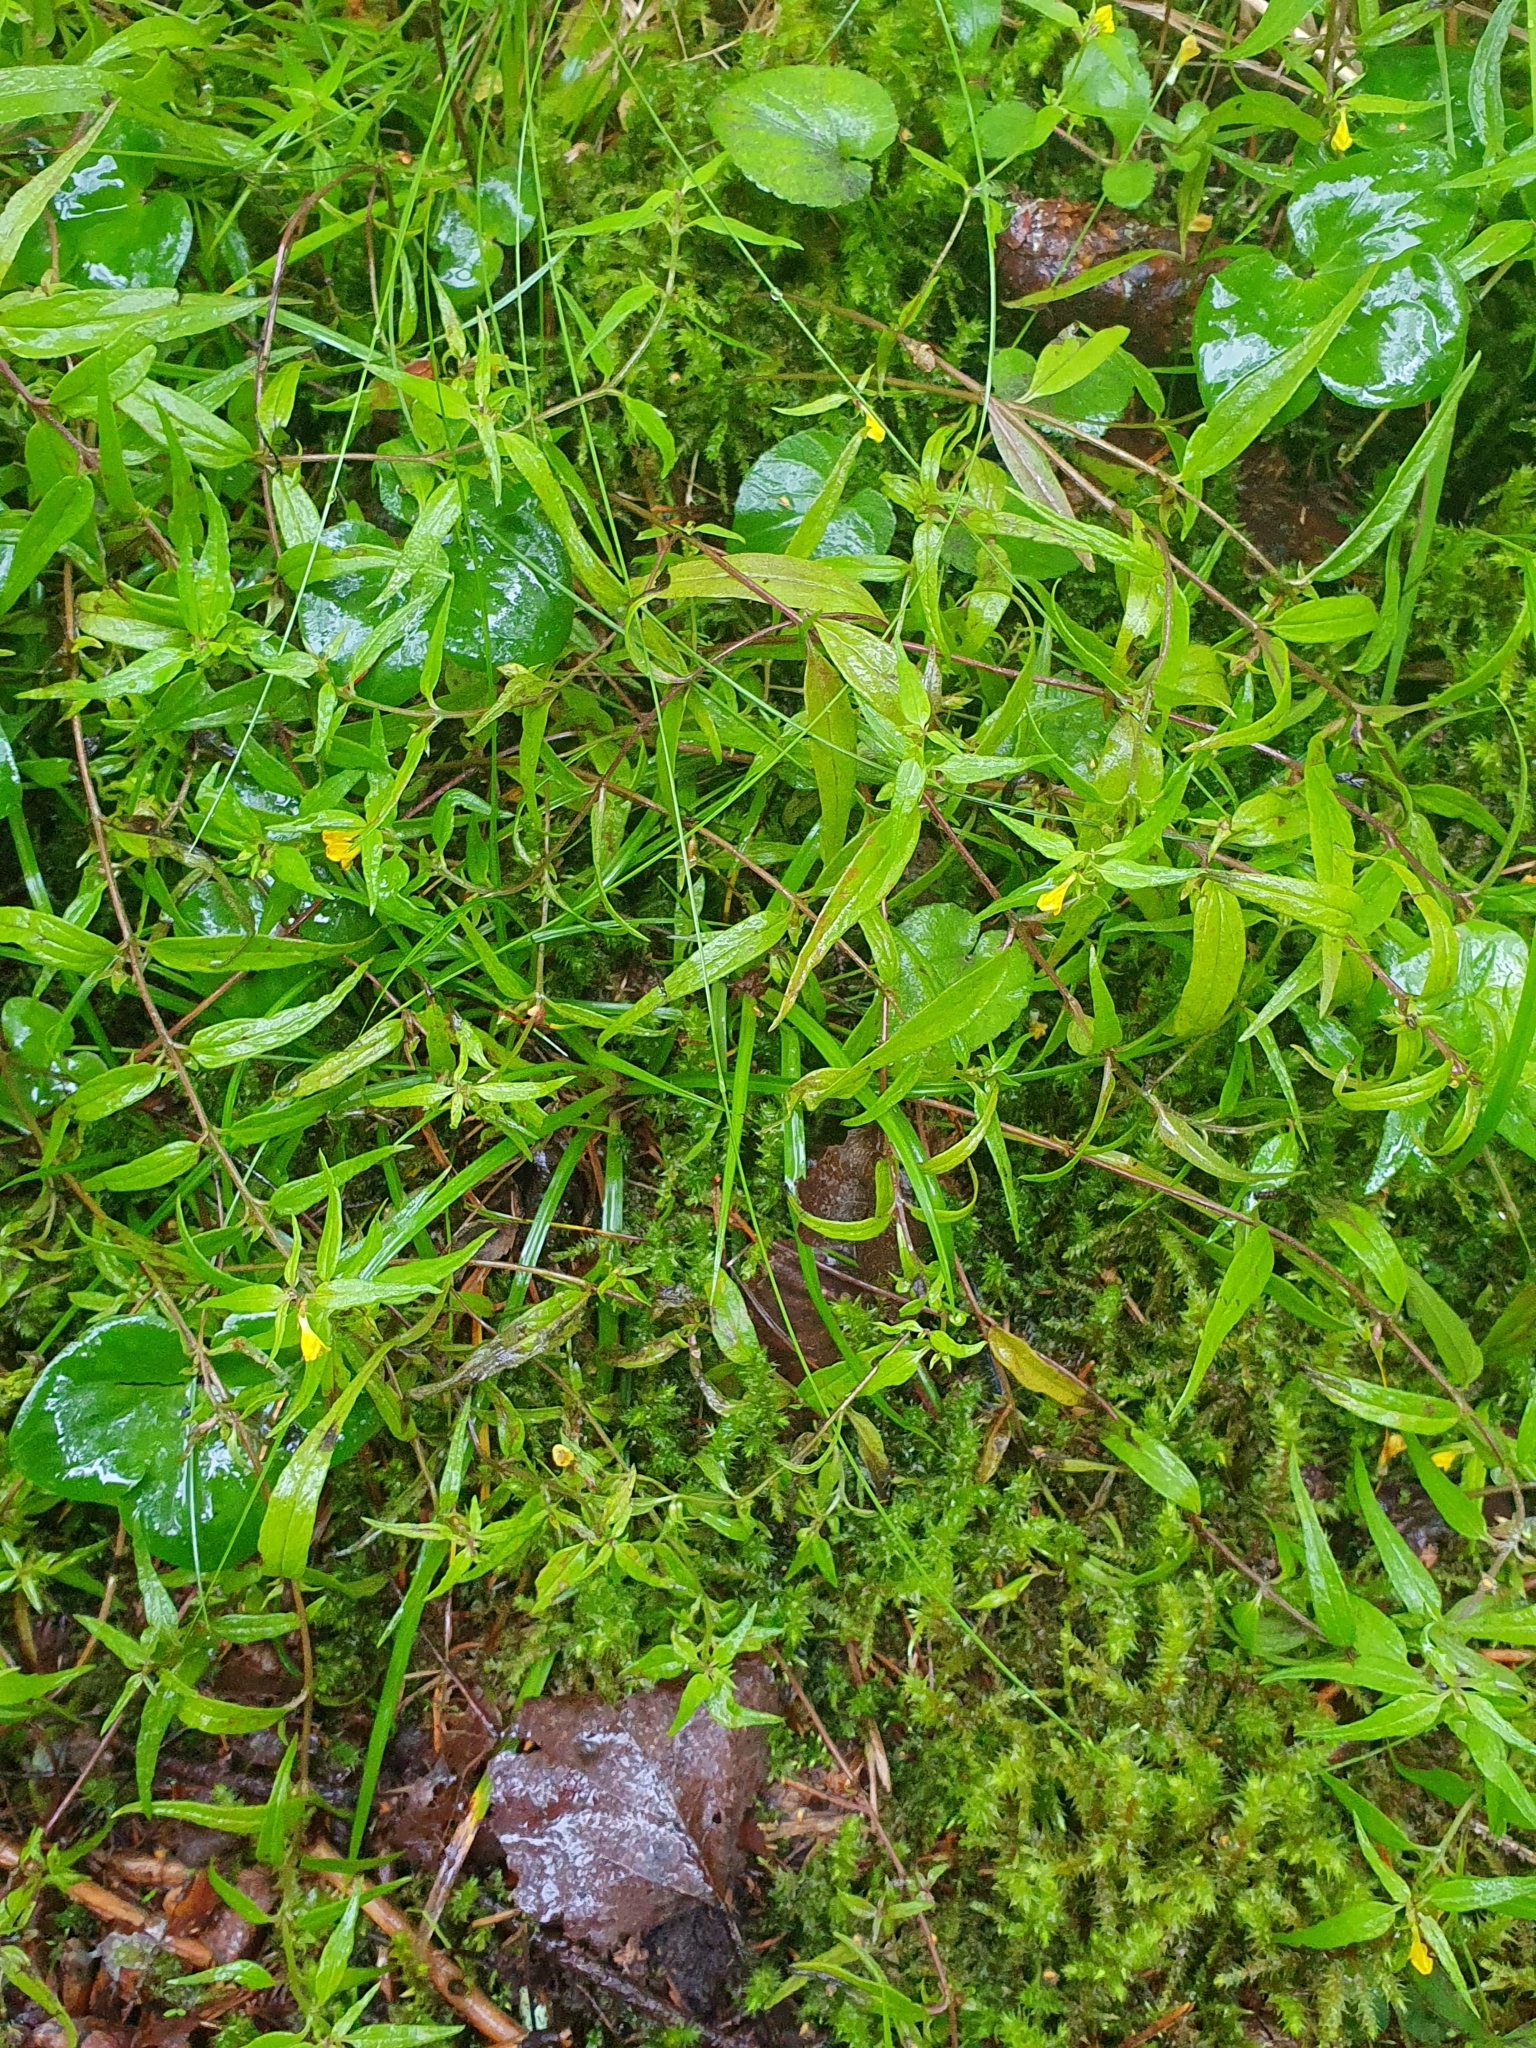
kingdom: Plantae
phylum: Tracheophyta
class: Magnoliopsida
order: Lamiales
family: Orobanchaceae
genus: Melampyrum
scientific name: Melampyrum sylvaticum
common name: Small cow-wheat
